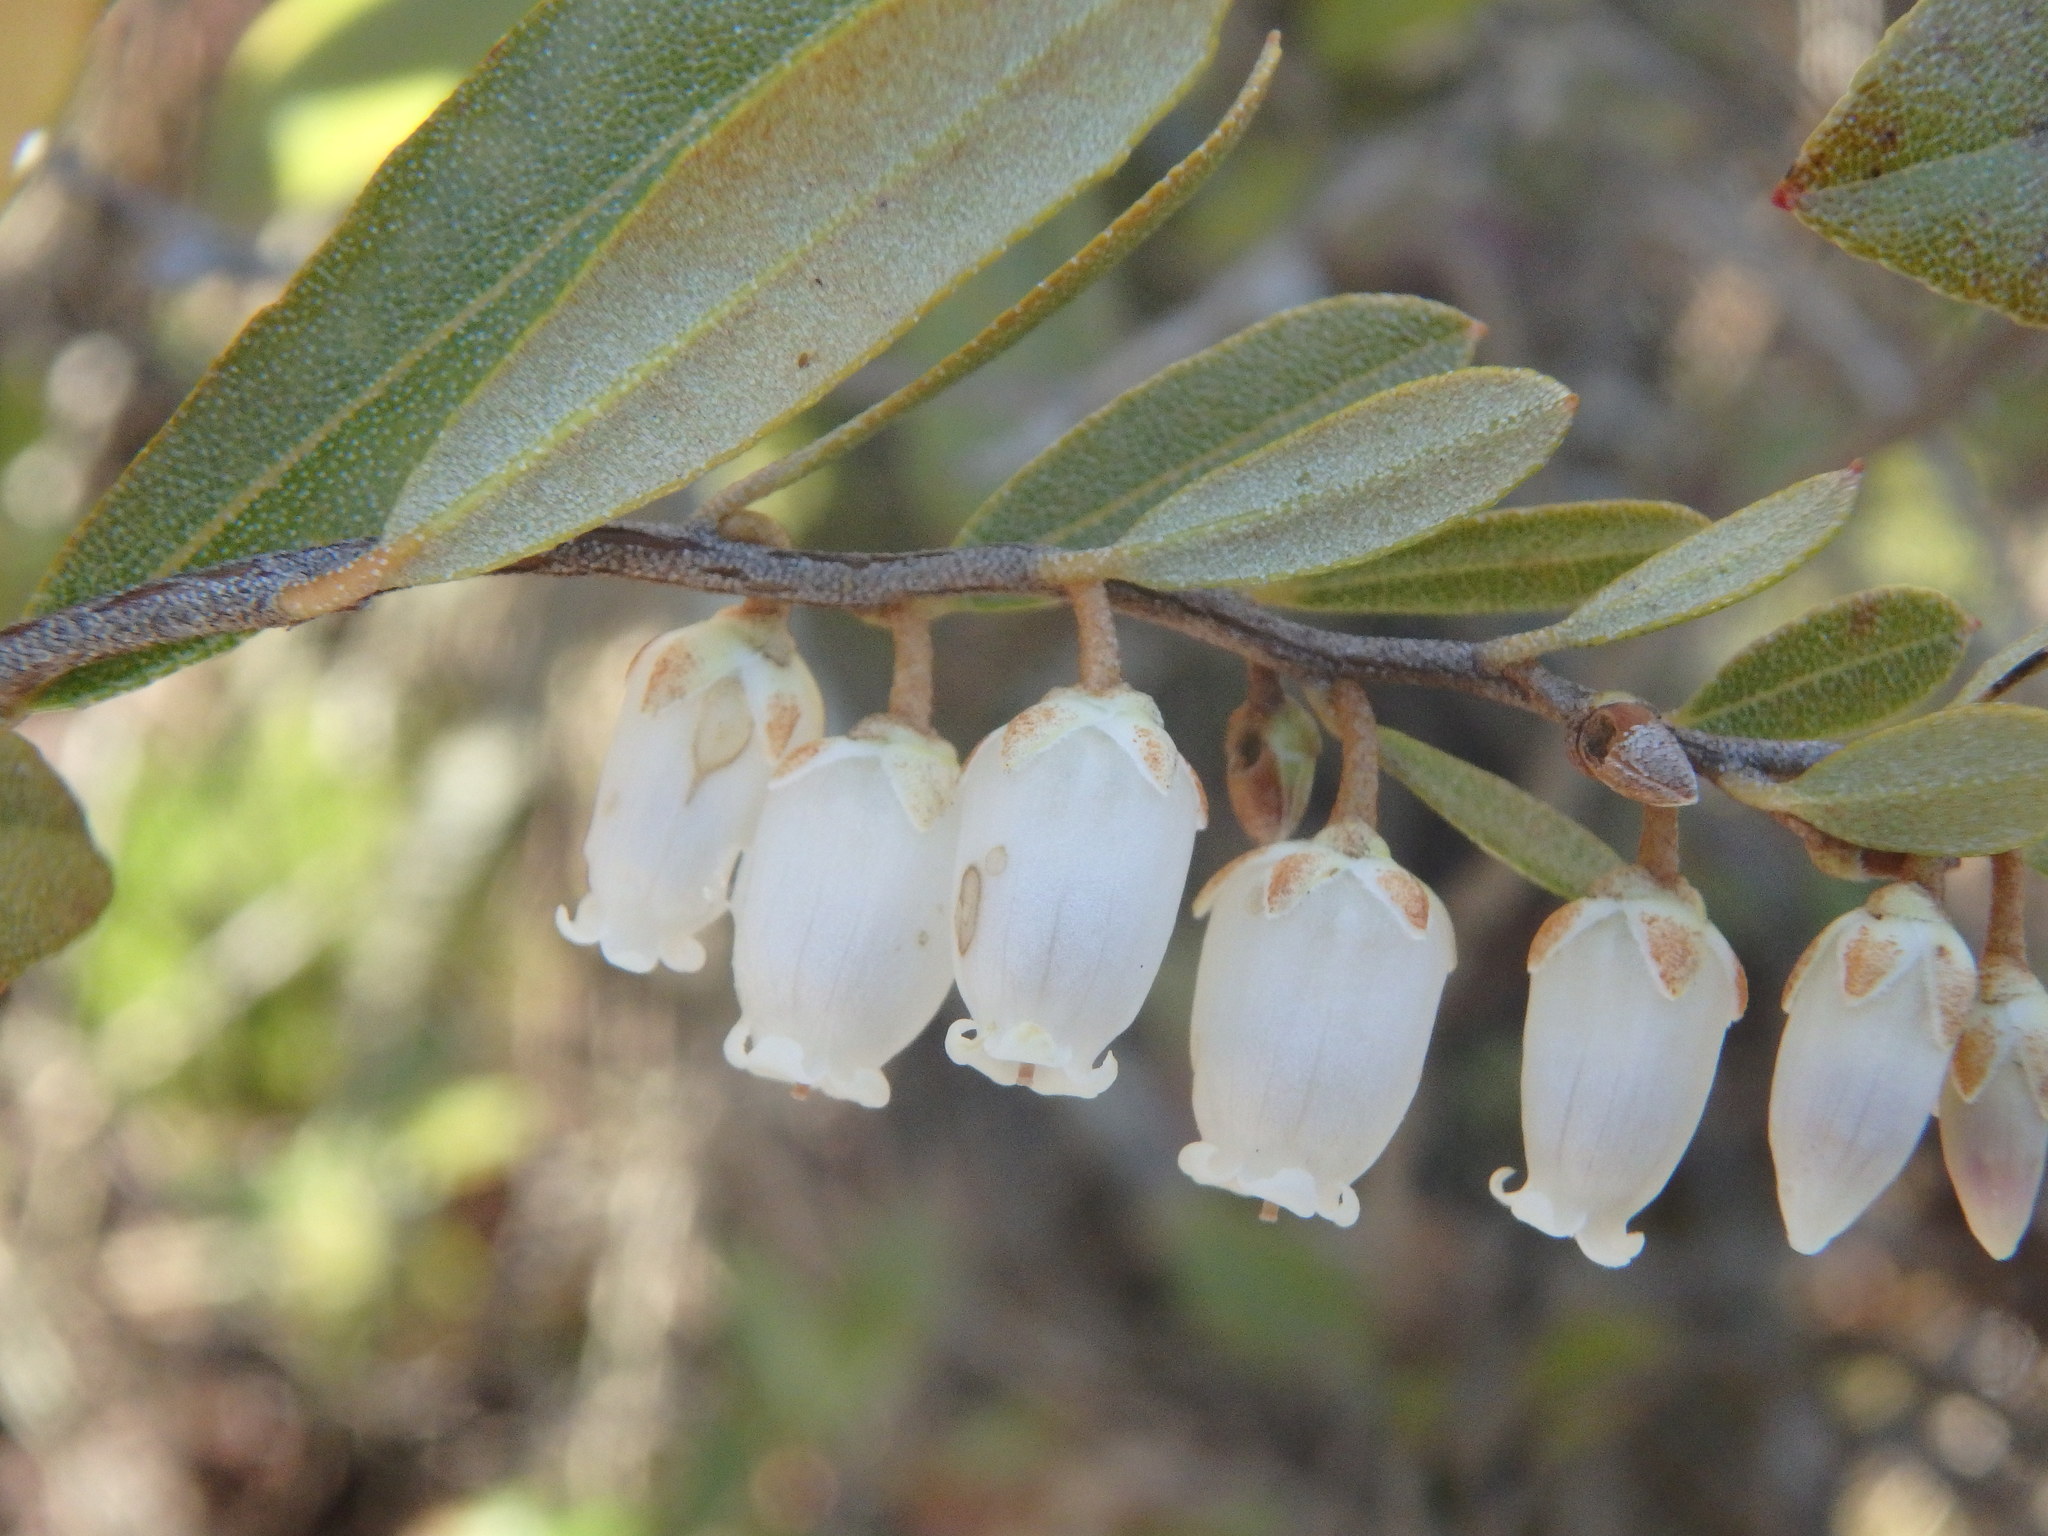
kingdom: Plantae
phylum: Tracheophyta
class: Magnoliopsida
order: Ericales
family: Ericaceae
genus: Chamaedaphne
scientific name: Chamaedaphne calyculata
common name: Leatherleaf
